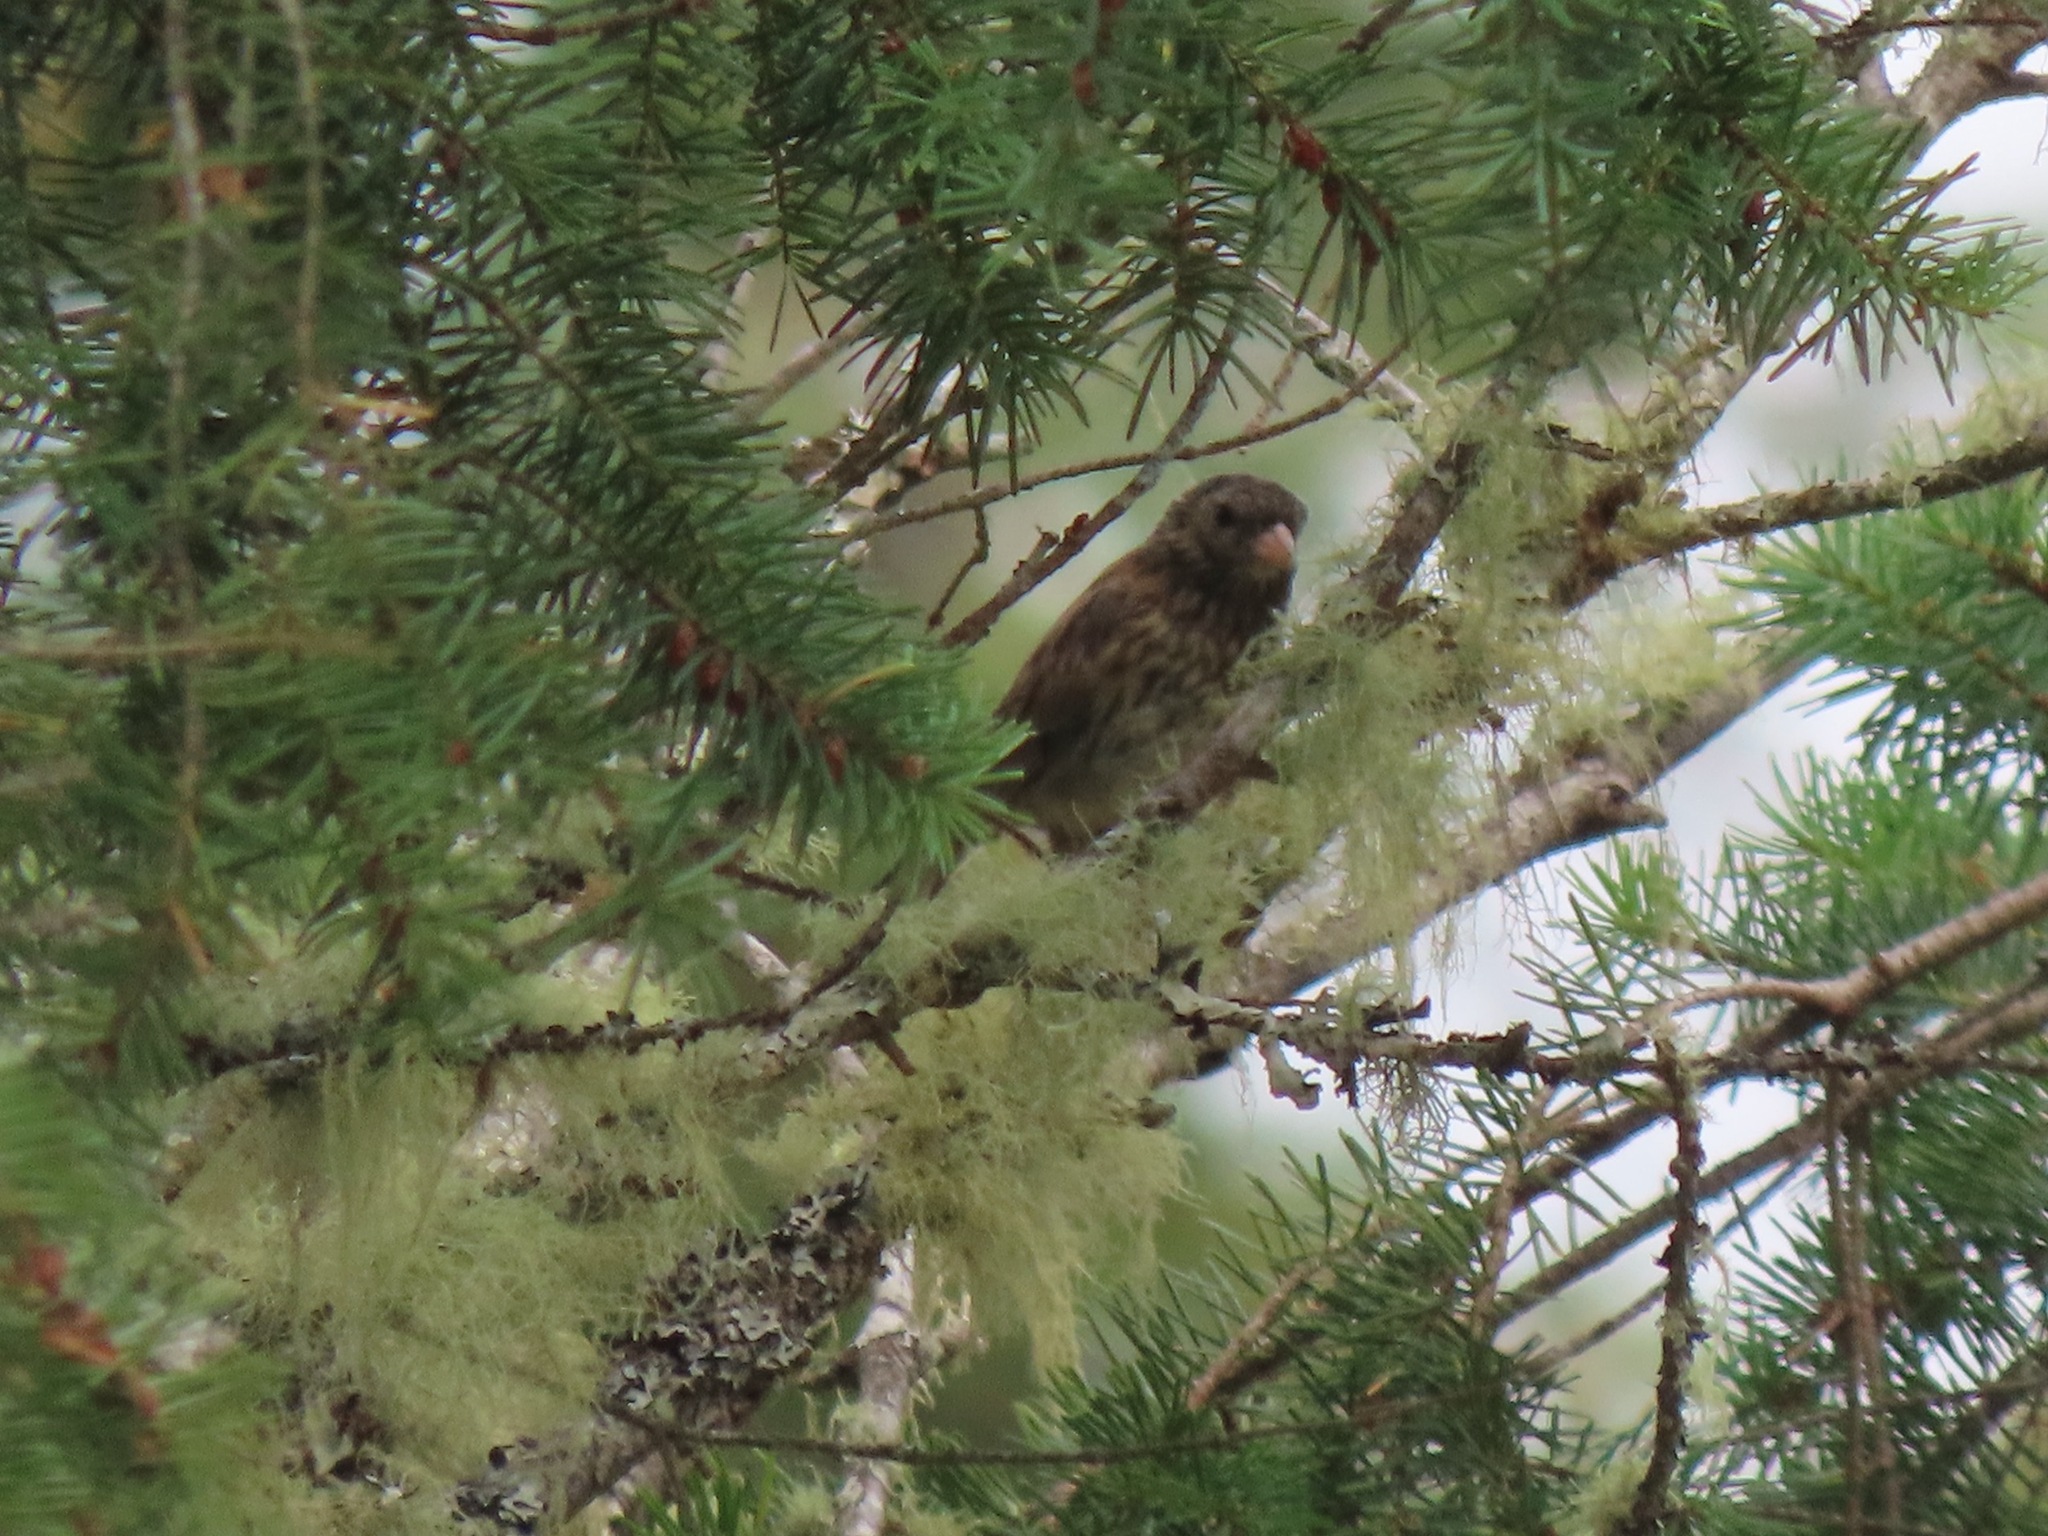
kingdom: Animalia
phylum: Chordata
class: Aves
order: Passeriformes
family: Passerellidae
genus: Junco
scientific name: Junco hyemalis
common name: Dark-eyed junco
